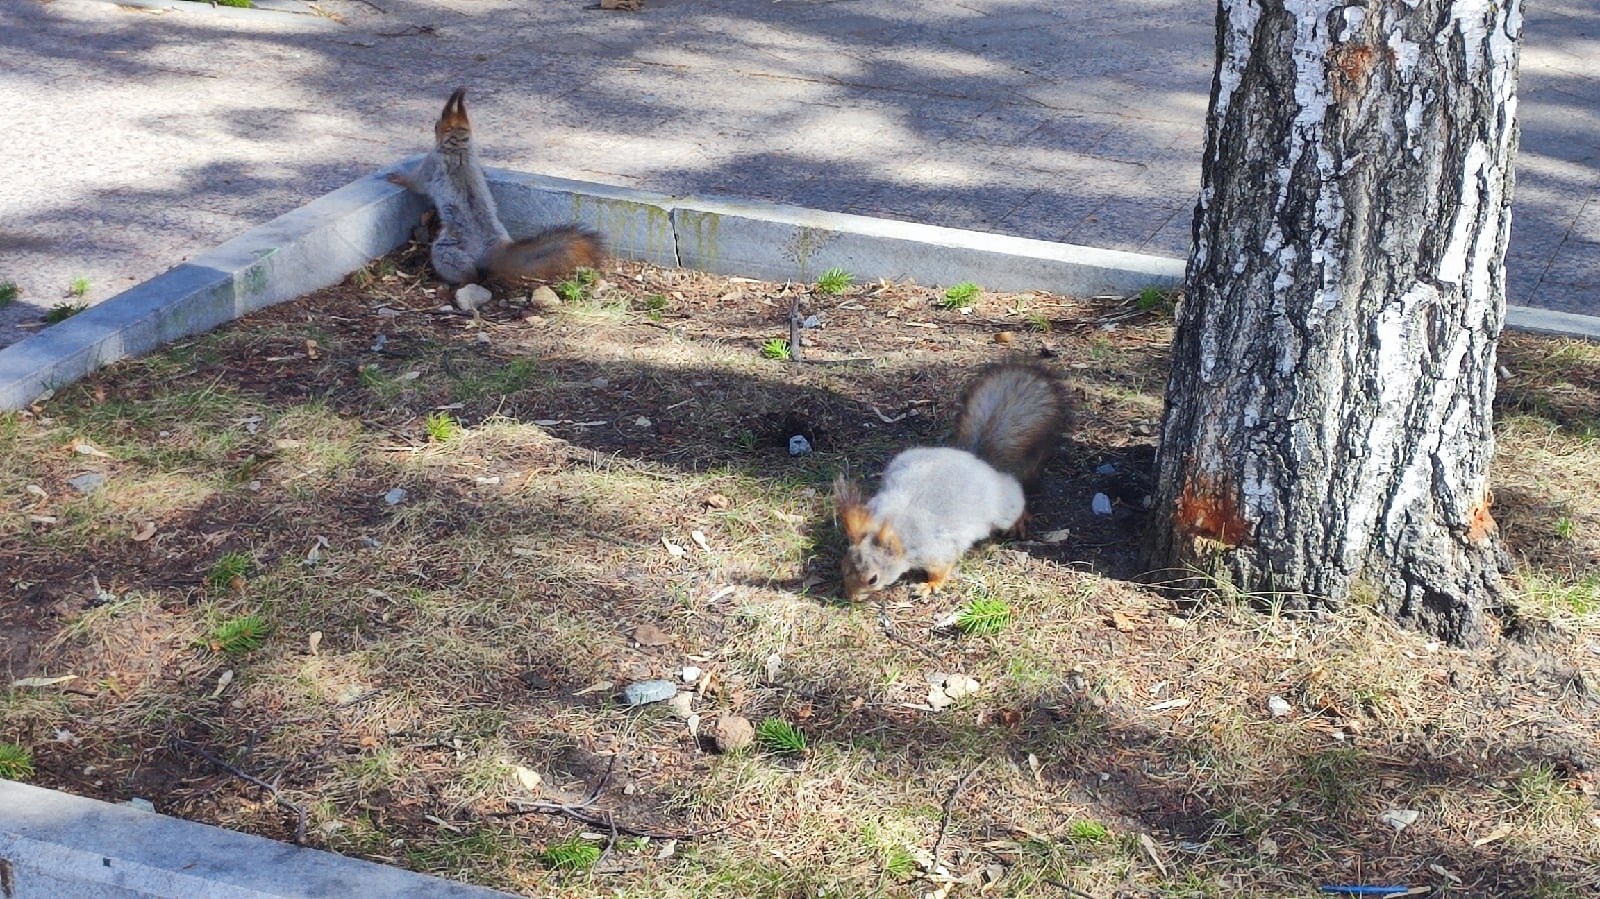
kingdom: Animalia
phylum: Chordata
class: Mammalia
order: Rodentia
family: Sciuridae
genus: Sciurus
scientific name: Sciurus vulgaris
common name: Eurasian red squirrel
